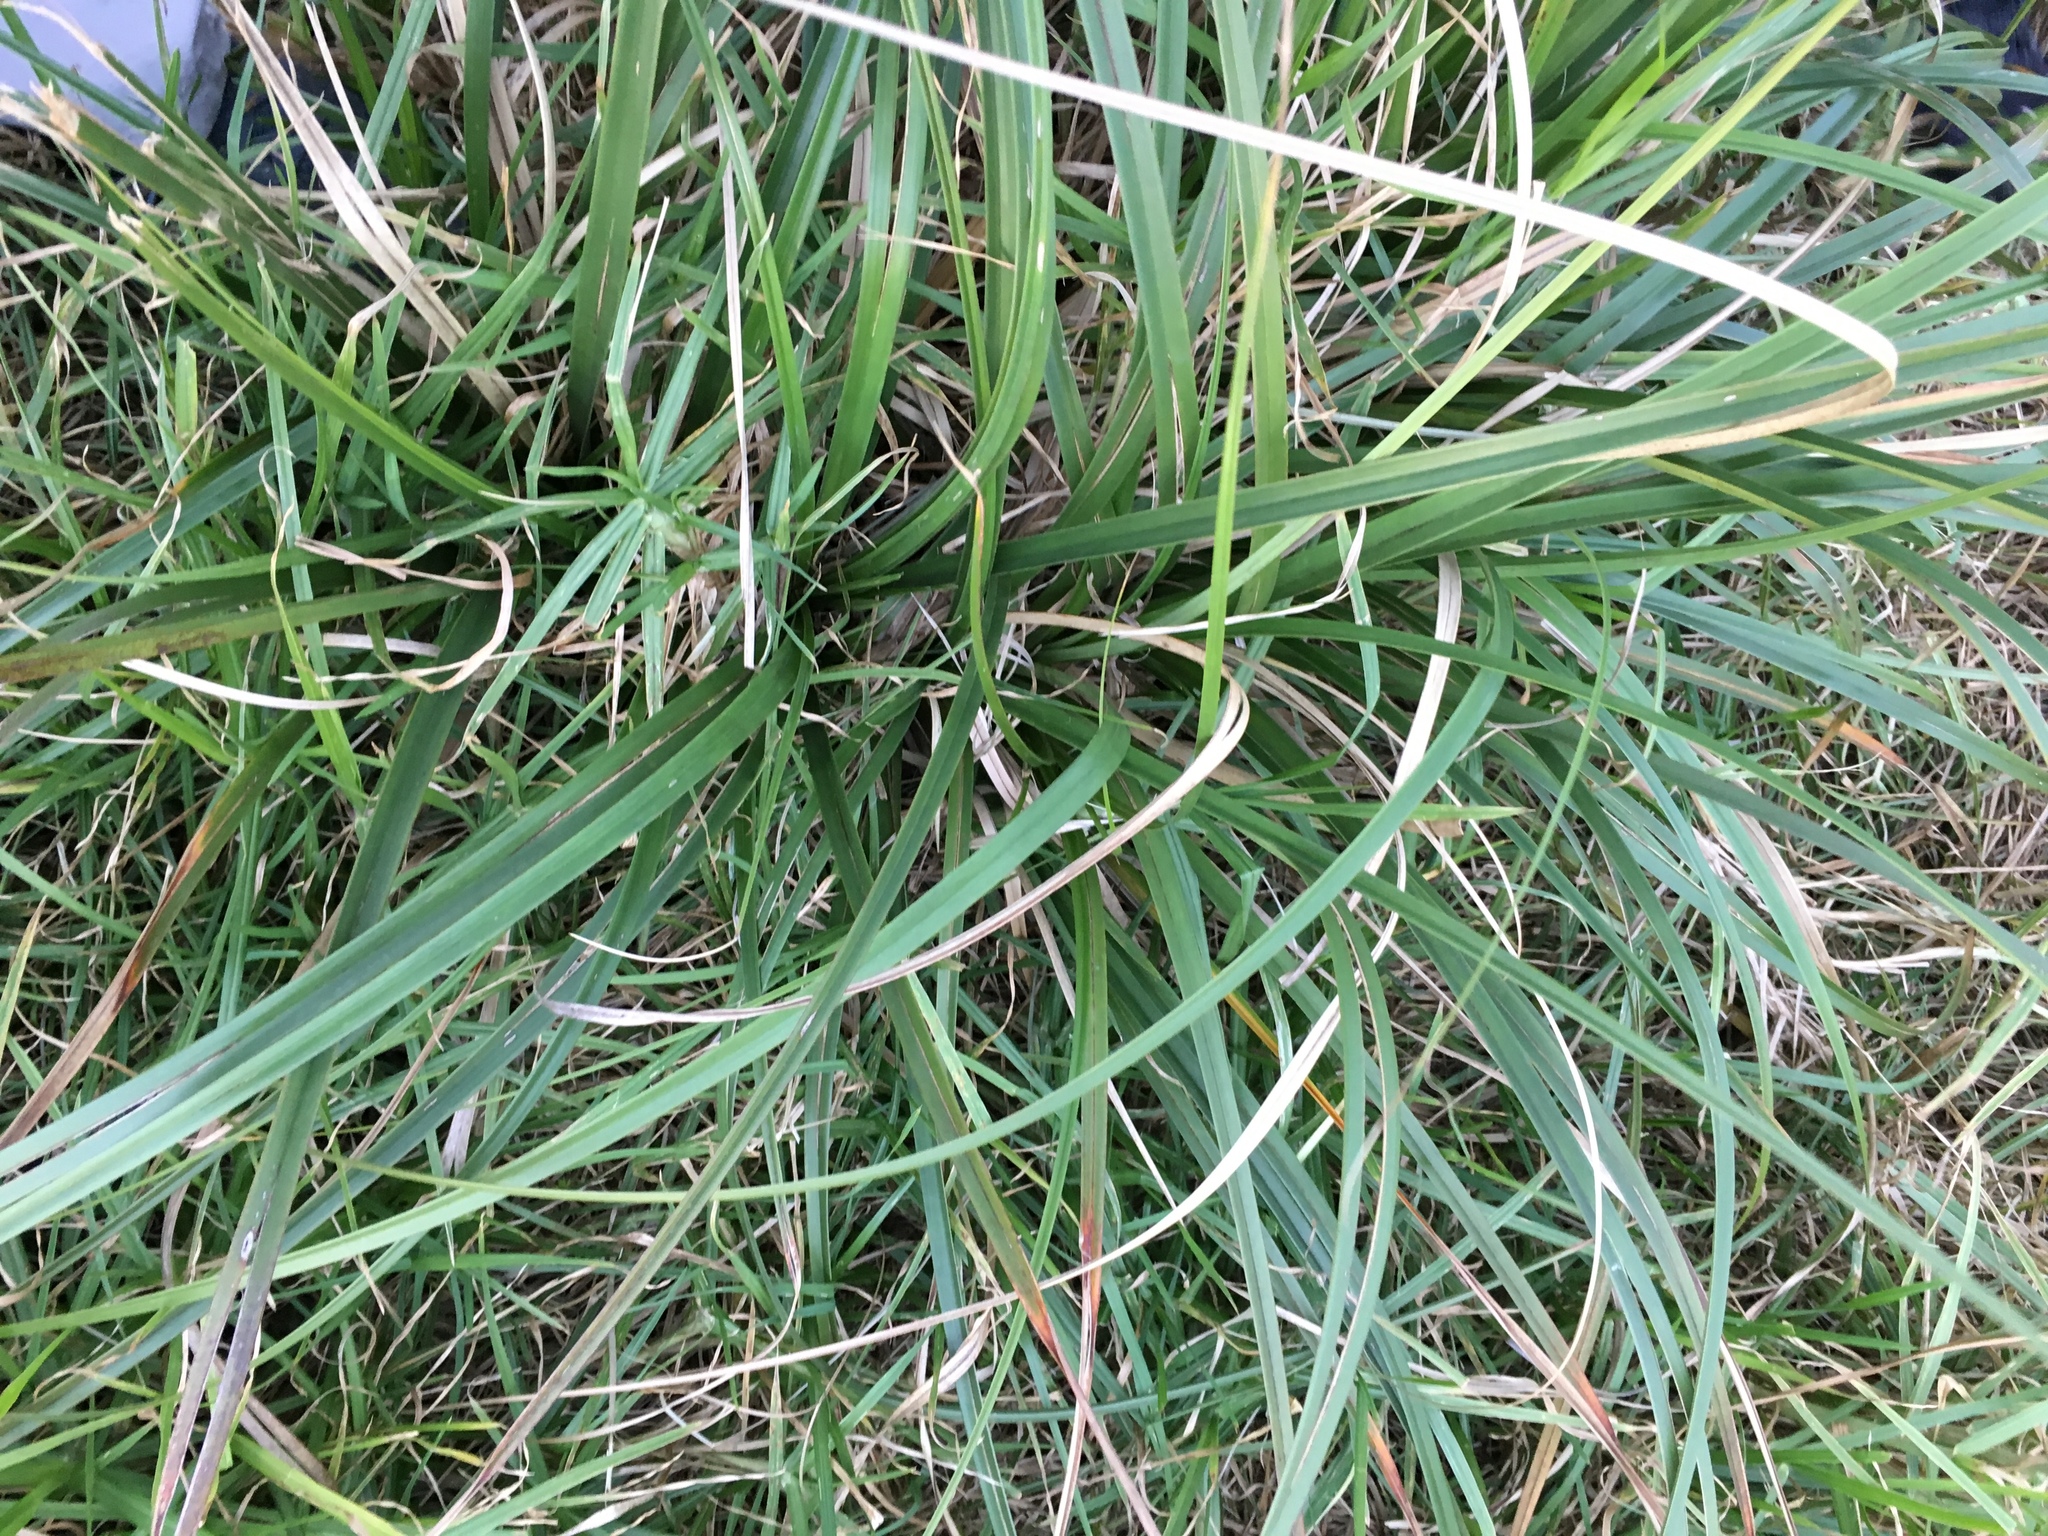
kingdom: Plantae
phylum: Tracheophyta
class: Liliopsida
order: Poales
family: Cyperaceae
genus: Cyperus
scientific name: Cyperus thunbergii
